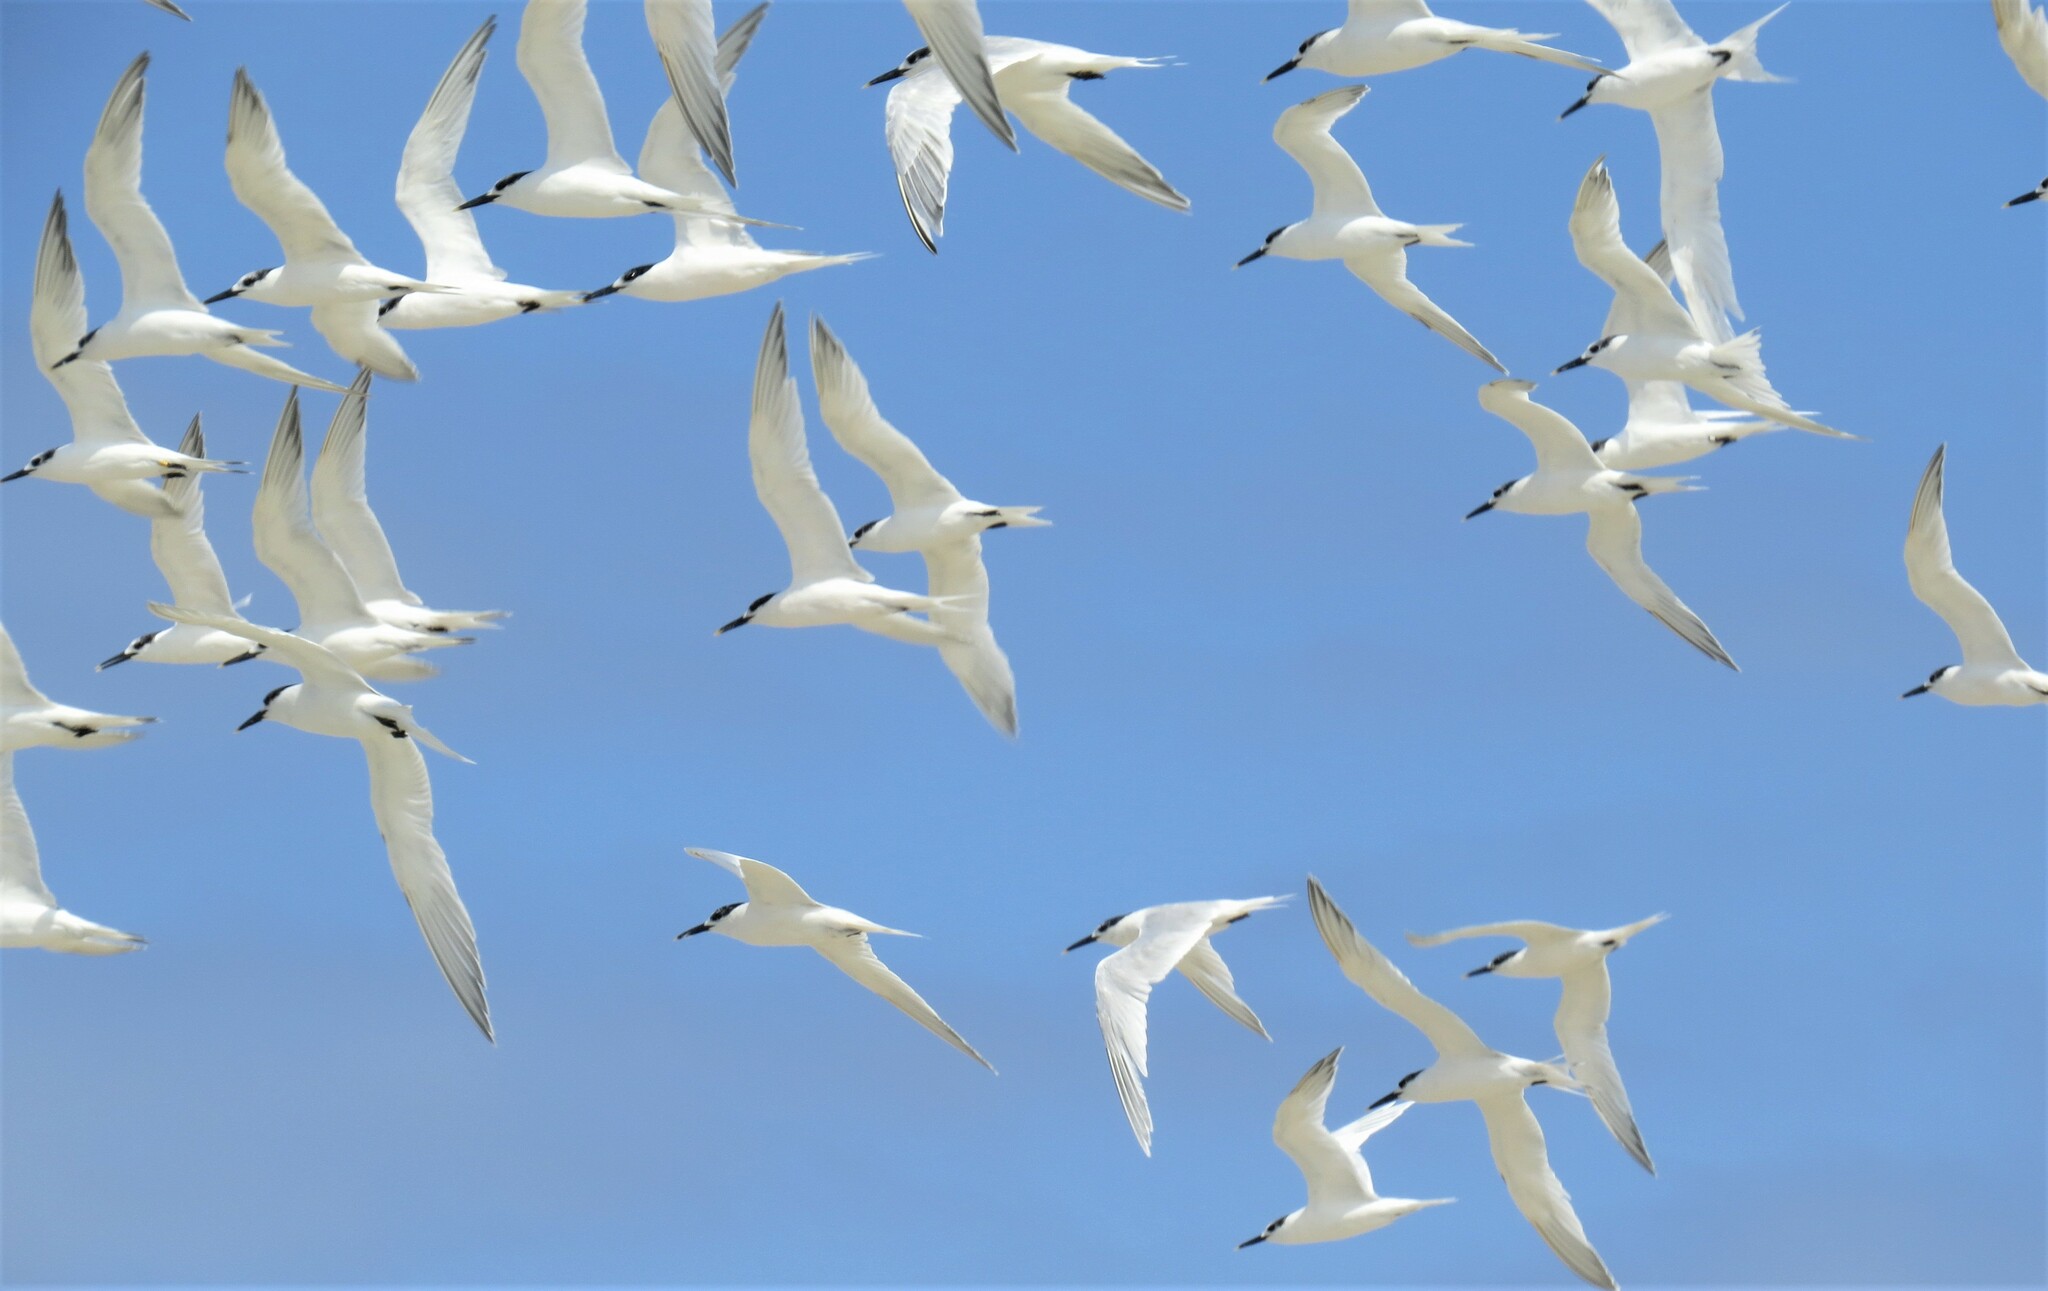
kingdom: Animalia
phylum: Chordata
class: Aves
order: Charadriiformes
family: Laridae
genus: Thalasseus
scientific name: Thalasseus sandvicensis
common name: Sandwich tern
